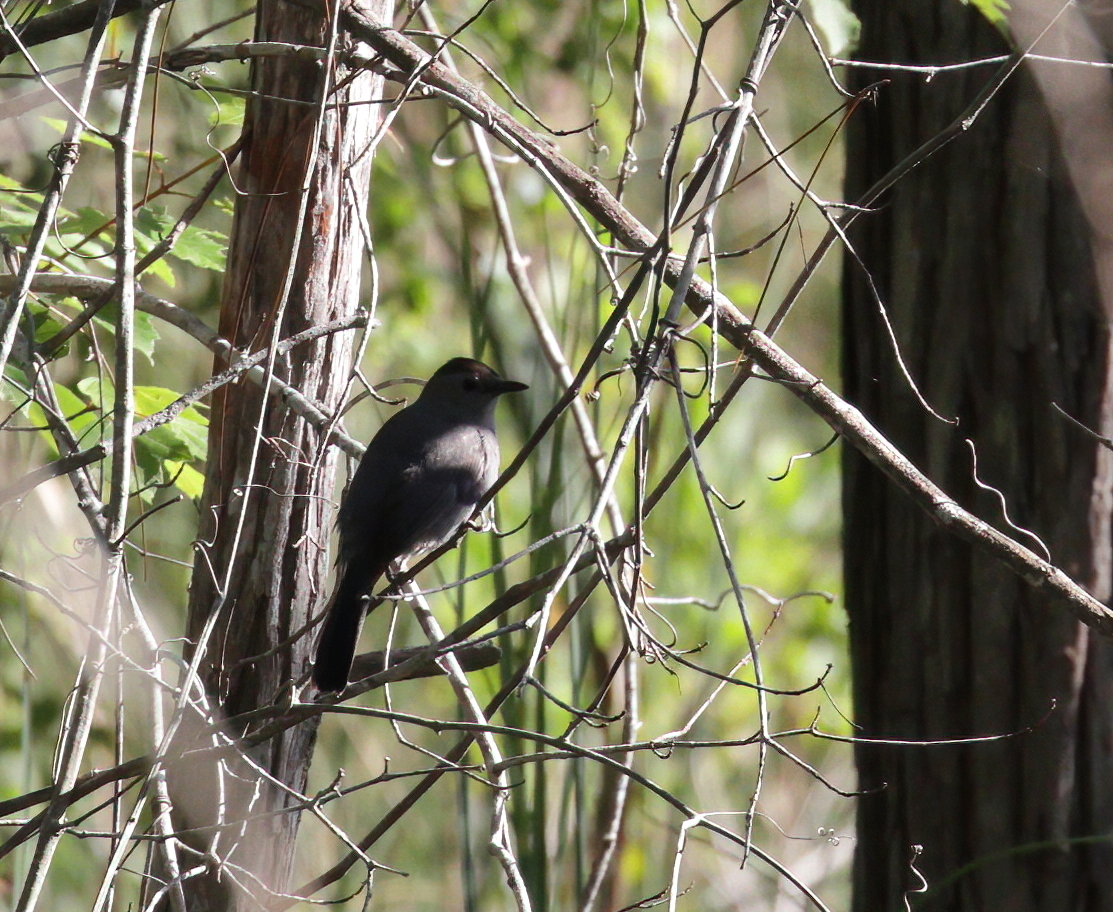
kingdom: Animalia
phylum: Chordata
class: Aves
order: Passeriformes
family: Mimidae
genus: Dumetella
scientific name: Dumetella carolinensis
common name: Gray catbird
